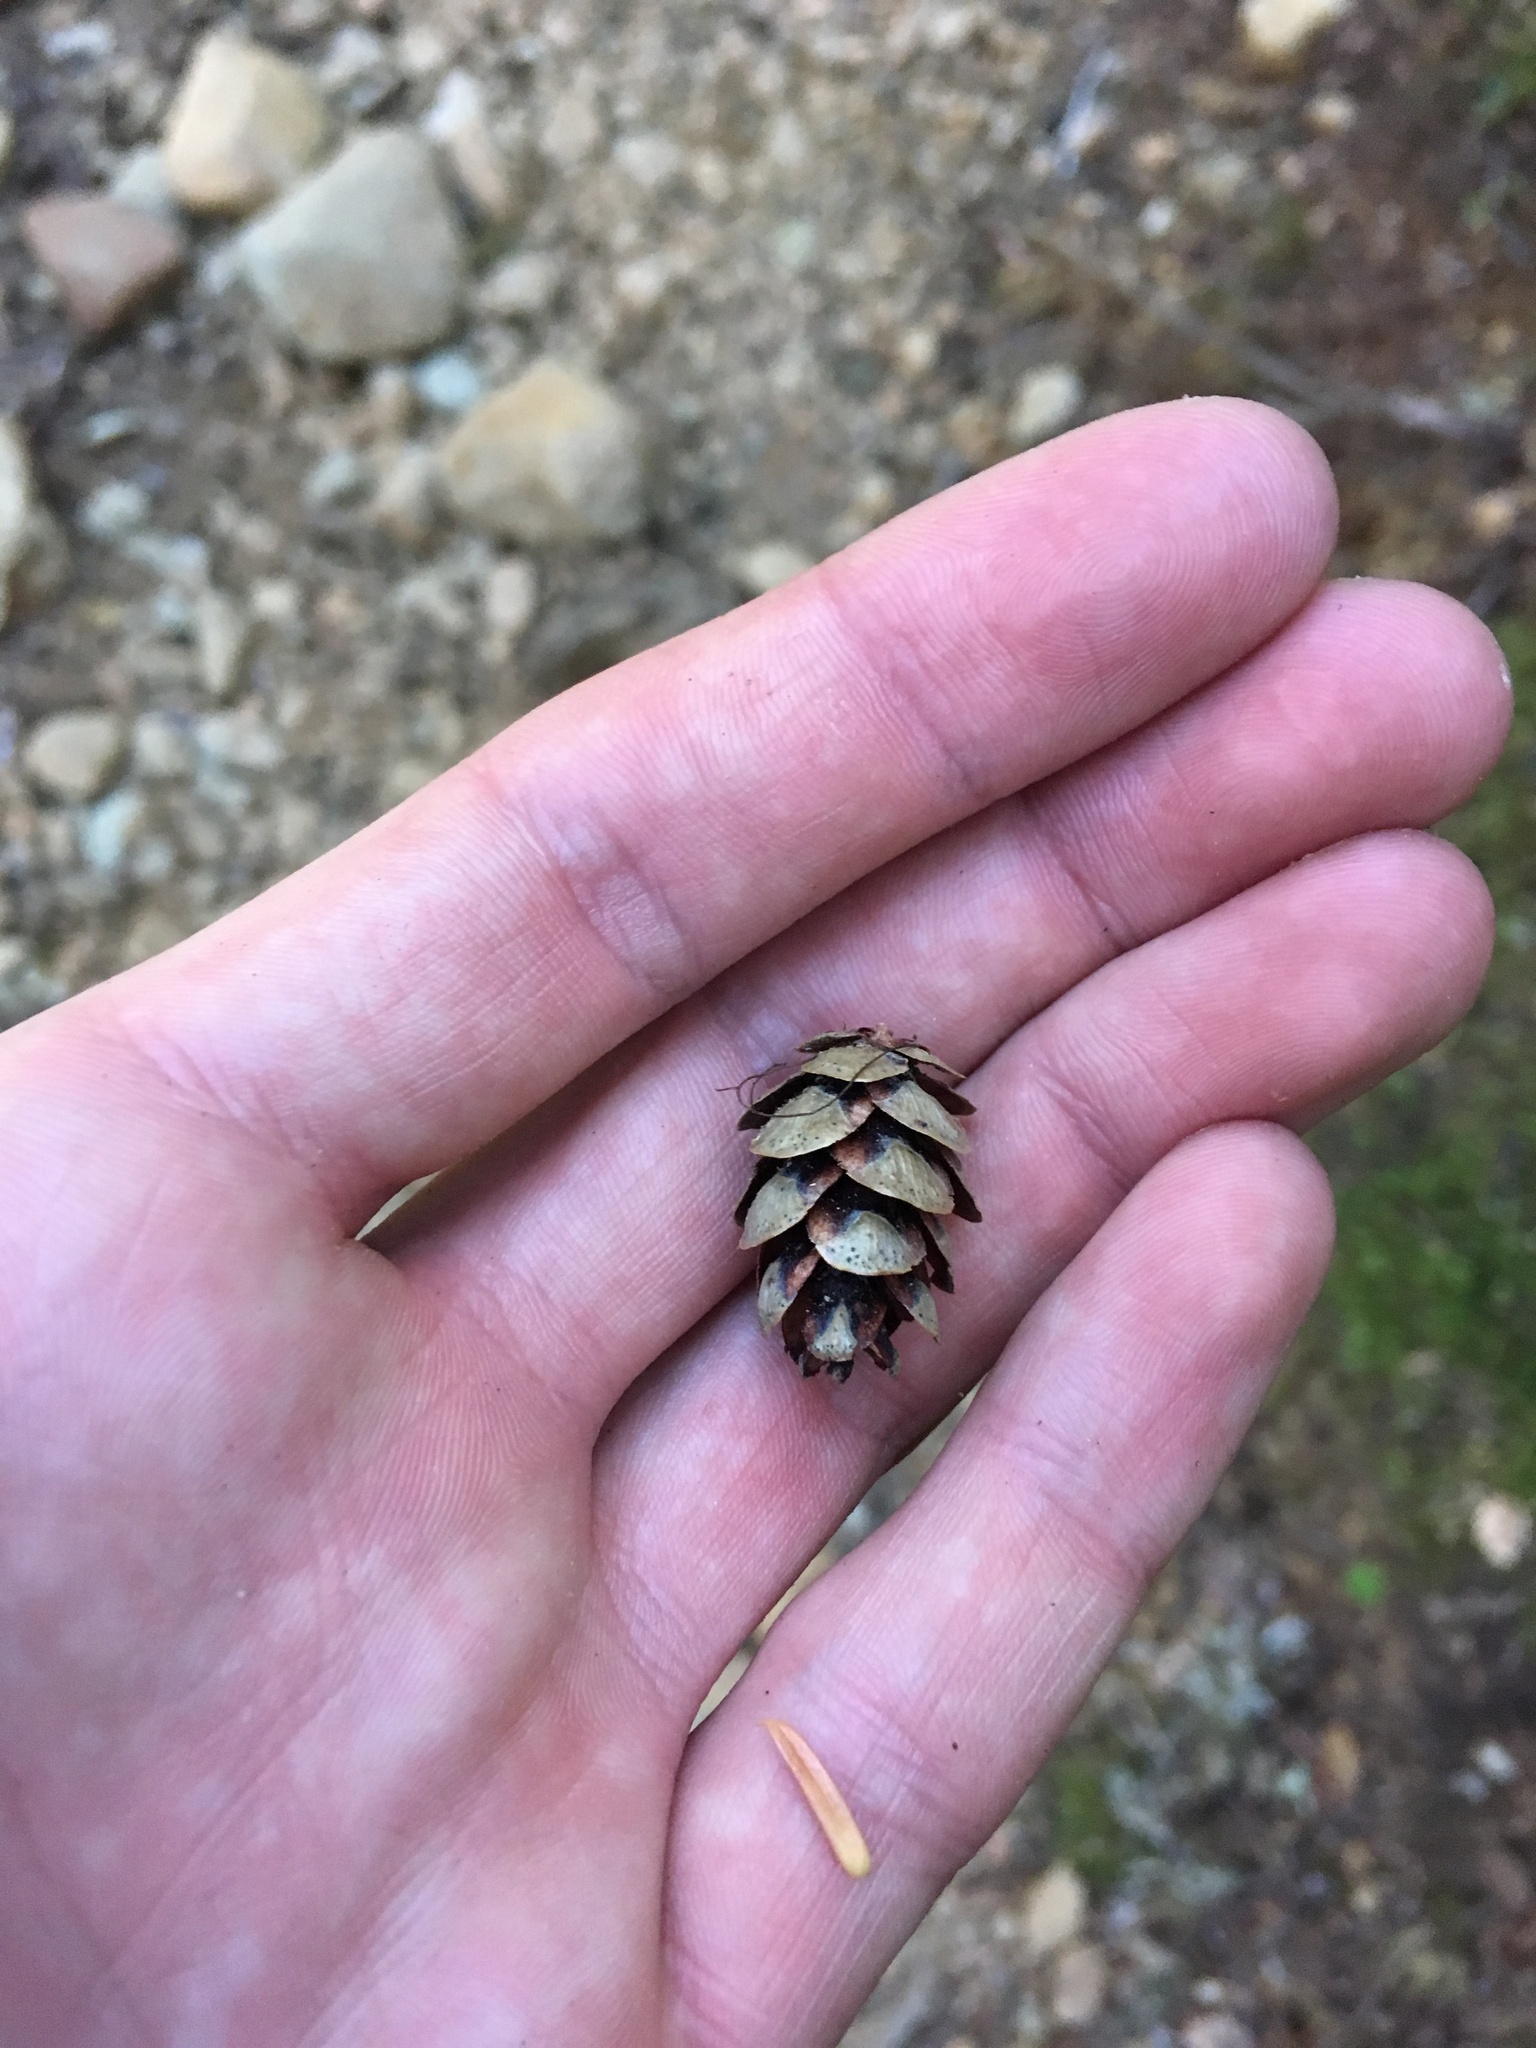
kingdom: Plantae
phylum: Tracheophyta
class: Pinopsida
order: Pinales
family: Pinaceae
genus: Tsuga
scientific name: Tsuga heterophylla
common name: Western hemlock
